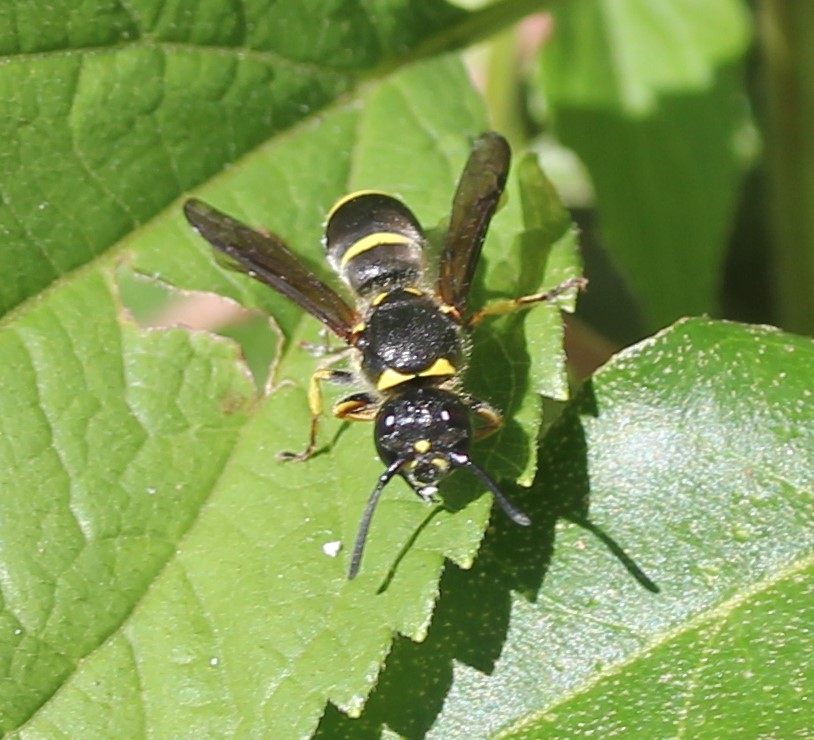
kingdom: Animalia
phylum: Arthropoda
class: Insecta
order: Hymenoptera
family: Vespidae
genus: Ancistrocerus
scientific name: Ancistrocerus
